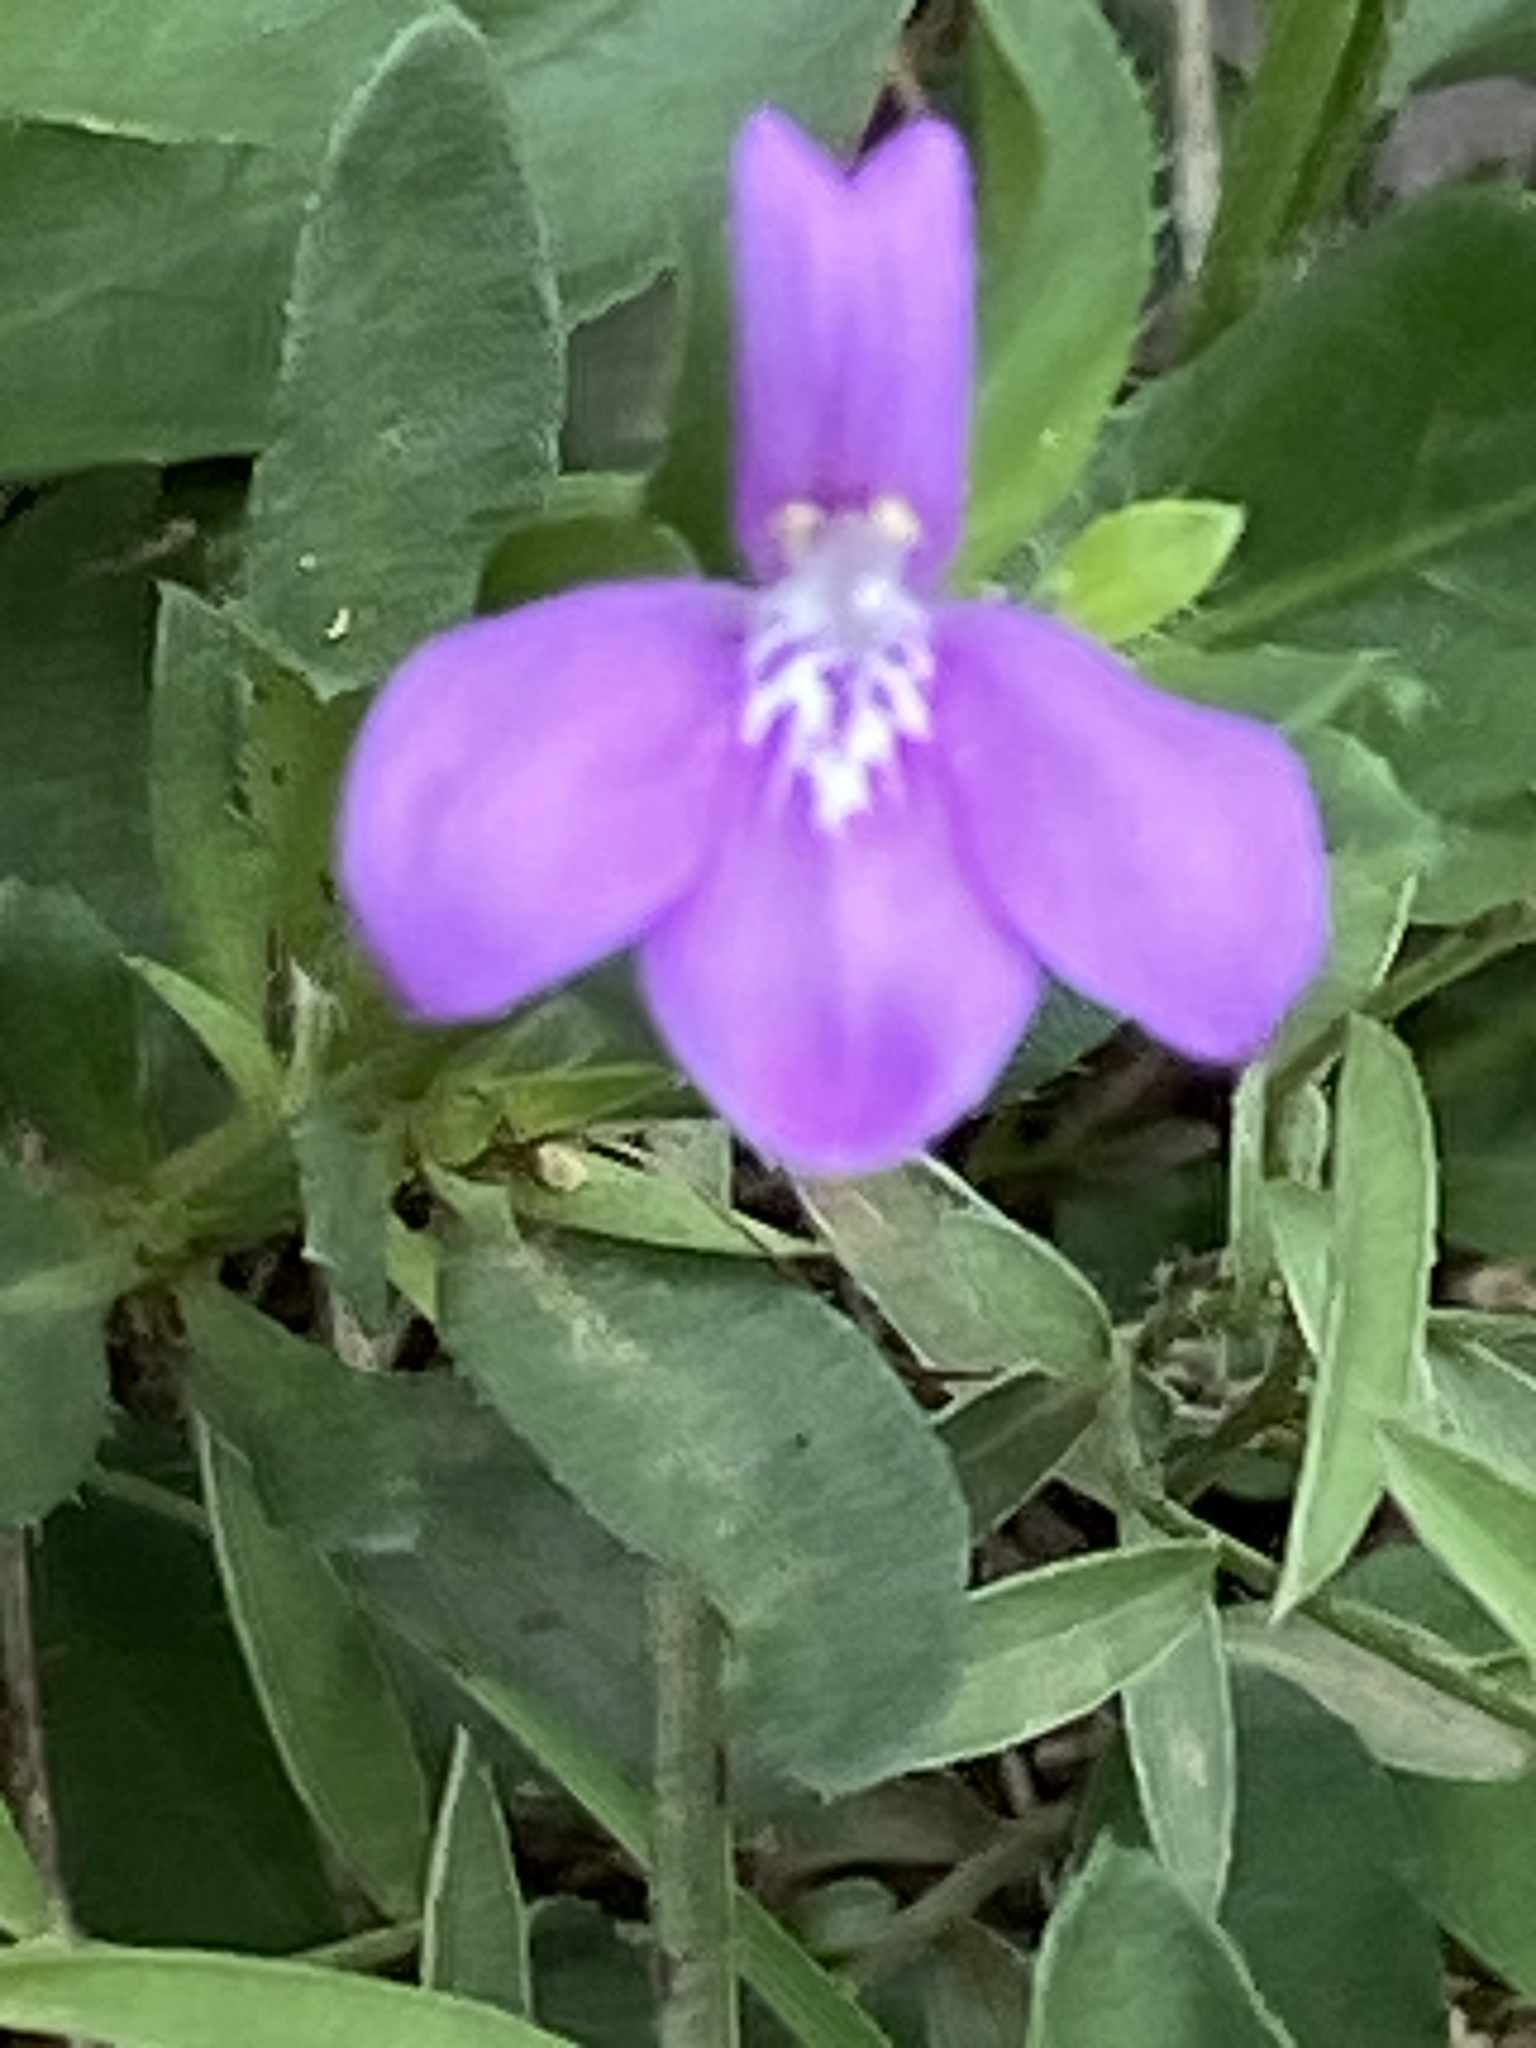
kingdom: Plantae
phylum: Tracheophyta
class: Magnoliopsida
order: Lamiales
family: Acanthaceae
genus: Justicia
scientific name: Justicia pilosella
